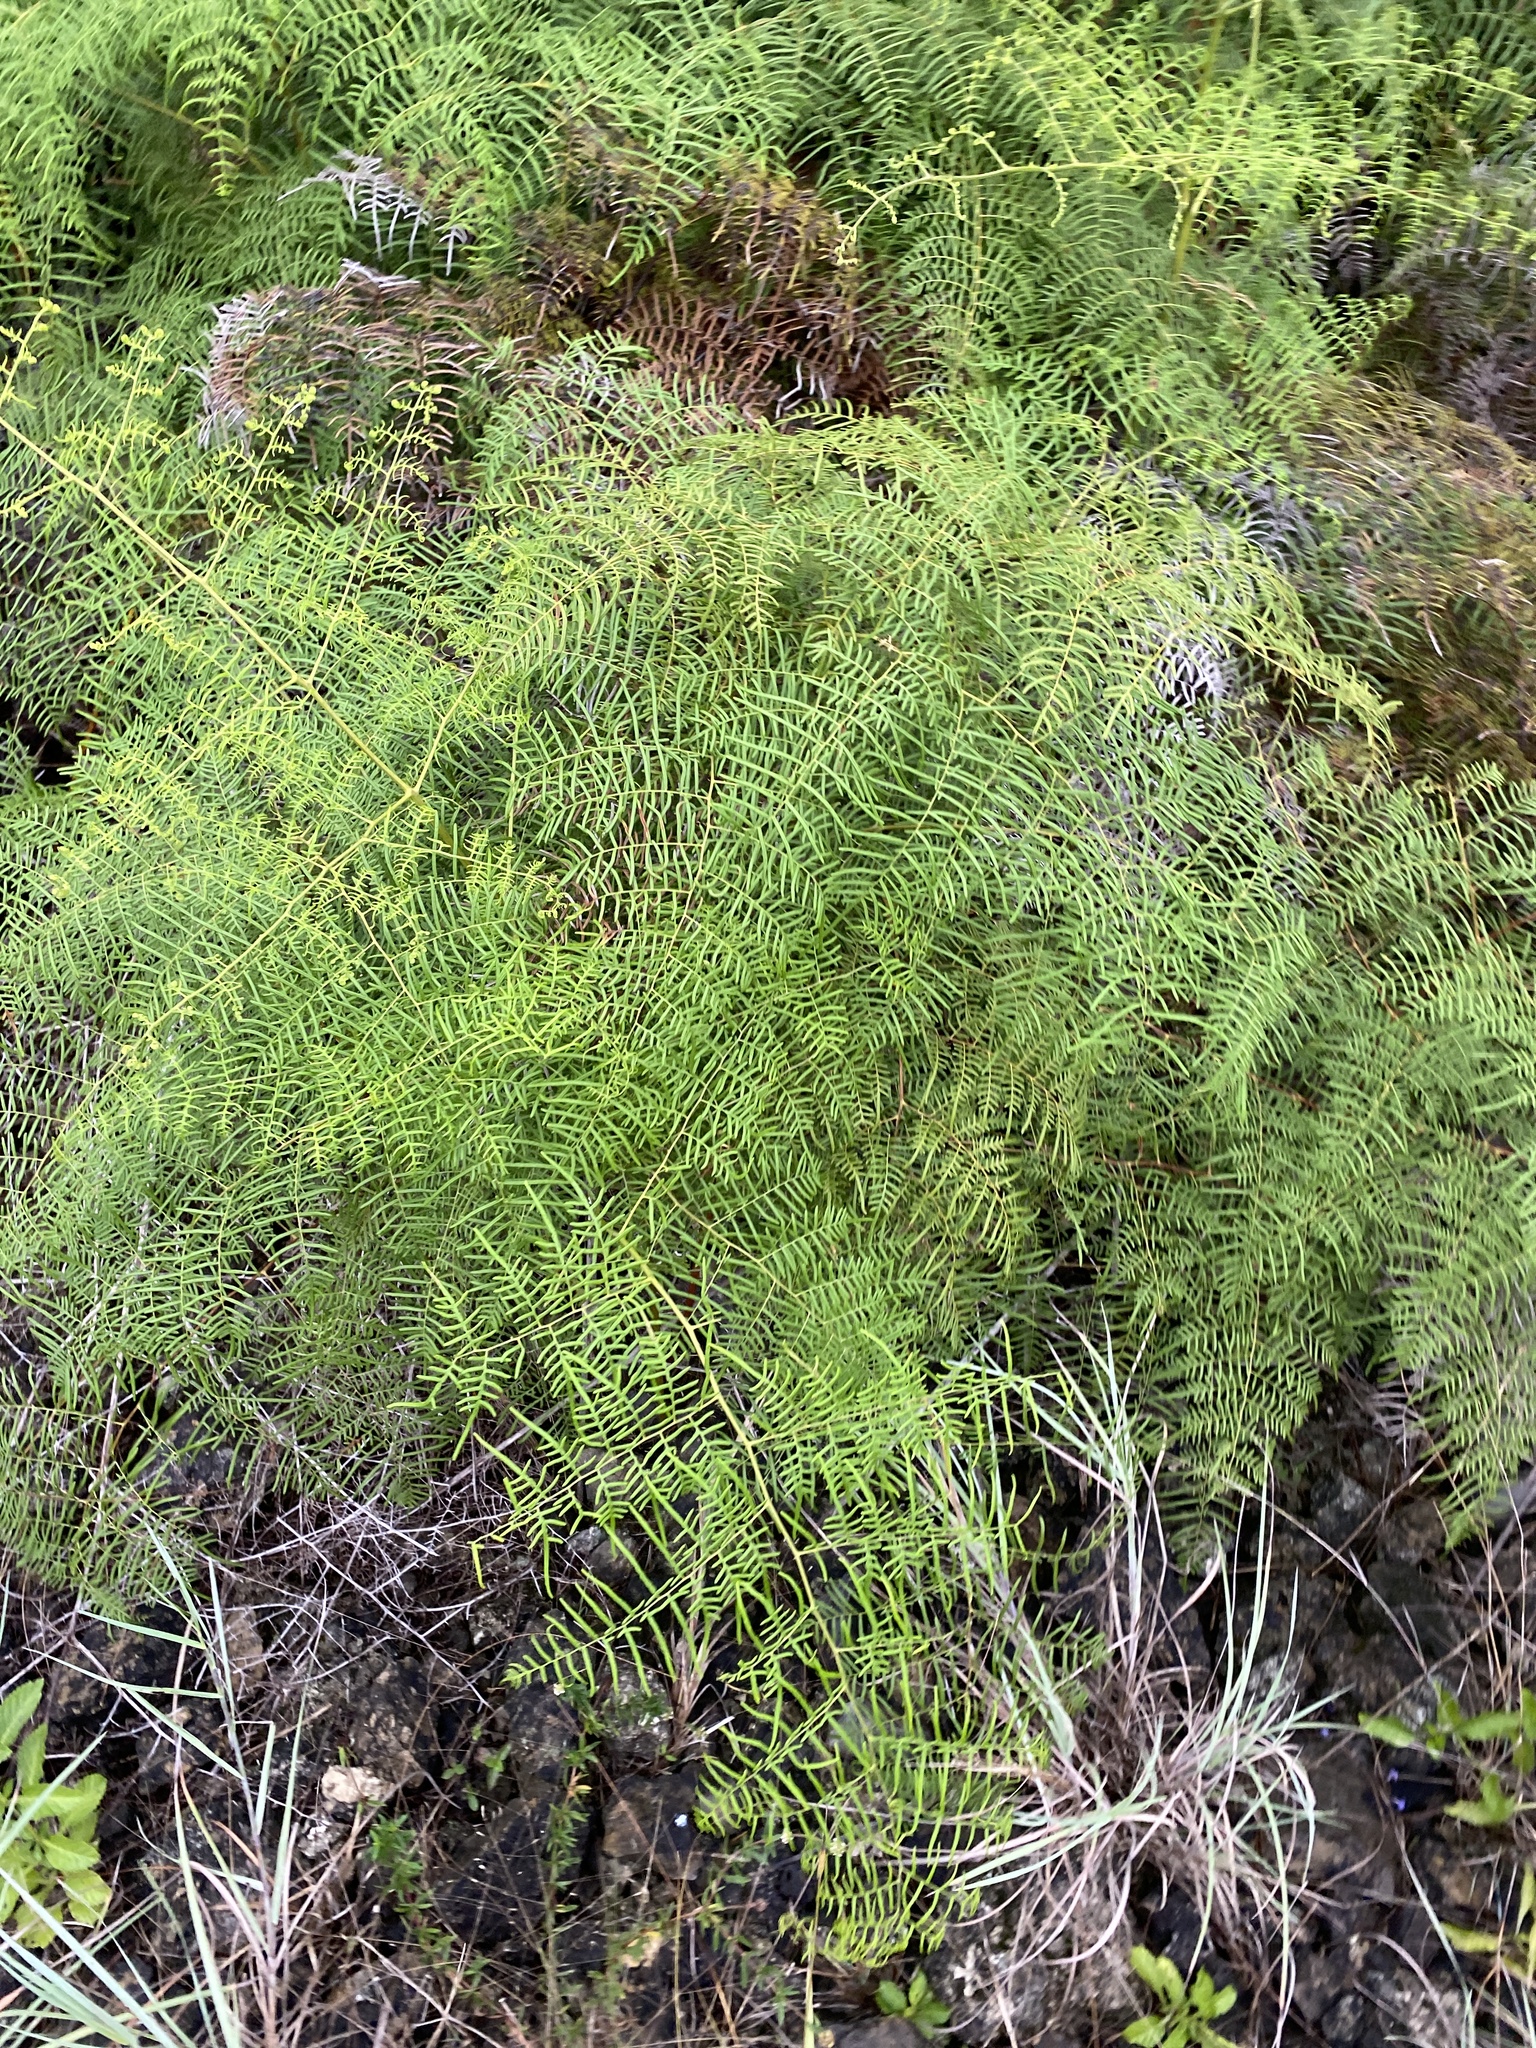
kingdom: Plantae
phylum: Tracheophyta
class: Polypodiopsida
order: Polypodiales
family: Dennstaedtiaceae
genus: Pteridium
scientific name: Pteridium caudatum
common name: Southern bracken fern
